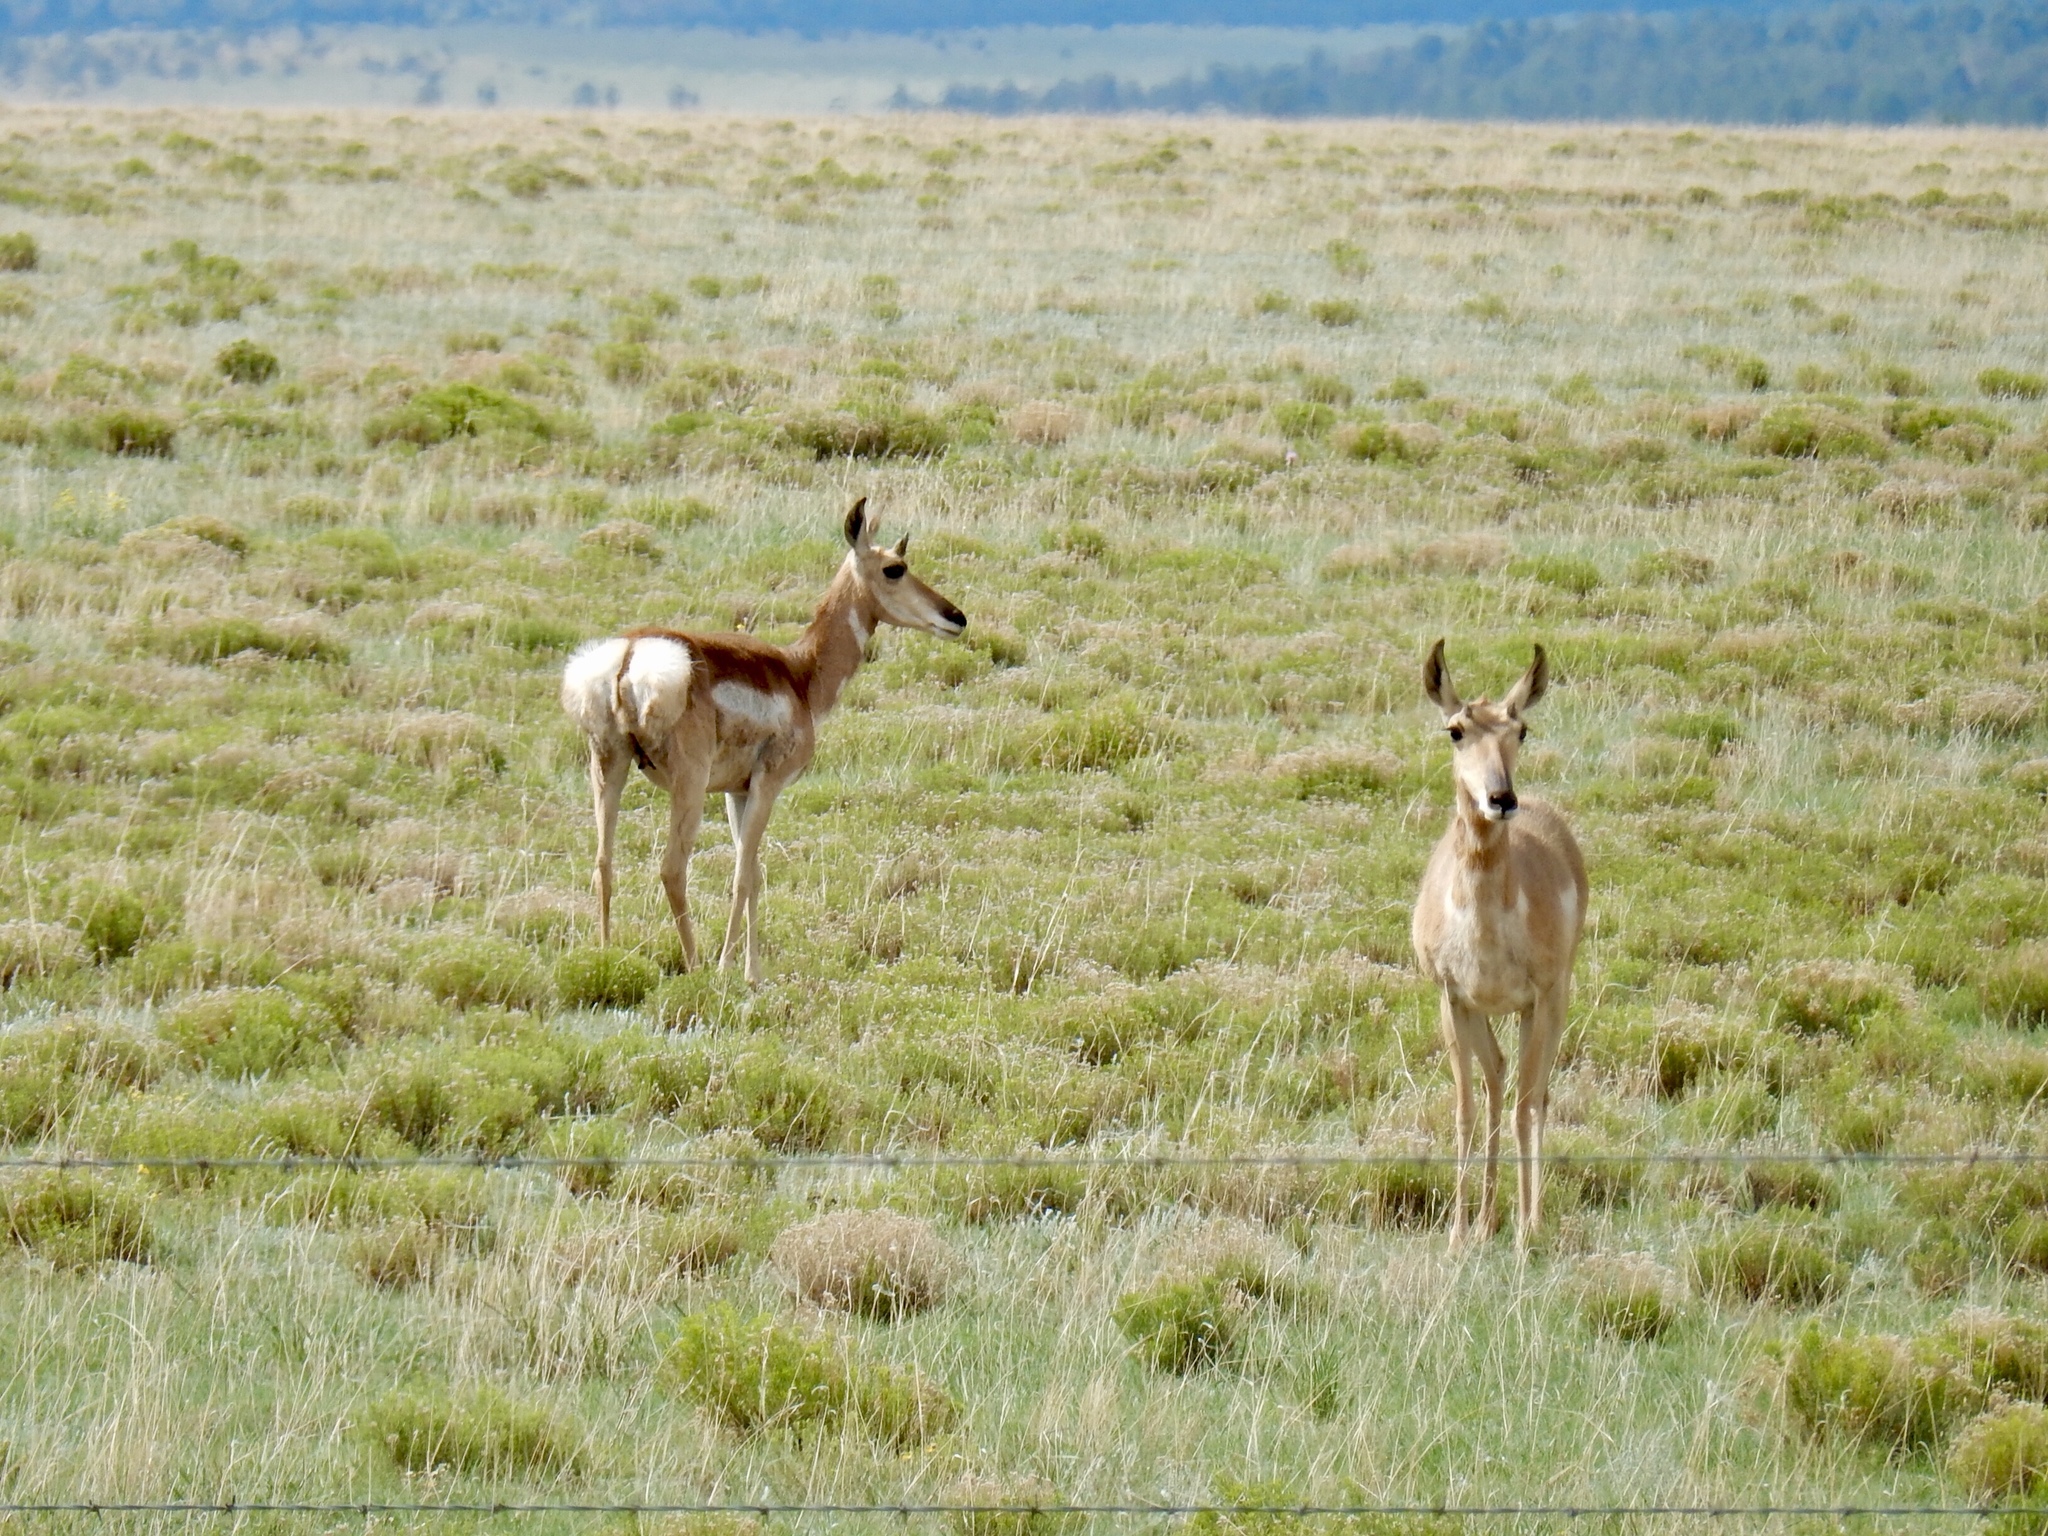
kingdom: Animalia
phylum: Chordata
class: Mammalia
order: Artiodactyla
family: Antilocapridae
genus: Antilocapra
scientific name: Antilocapra americana
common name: Pronghorn
